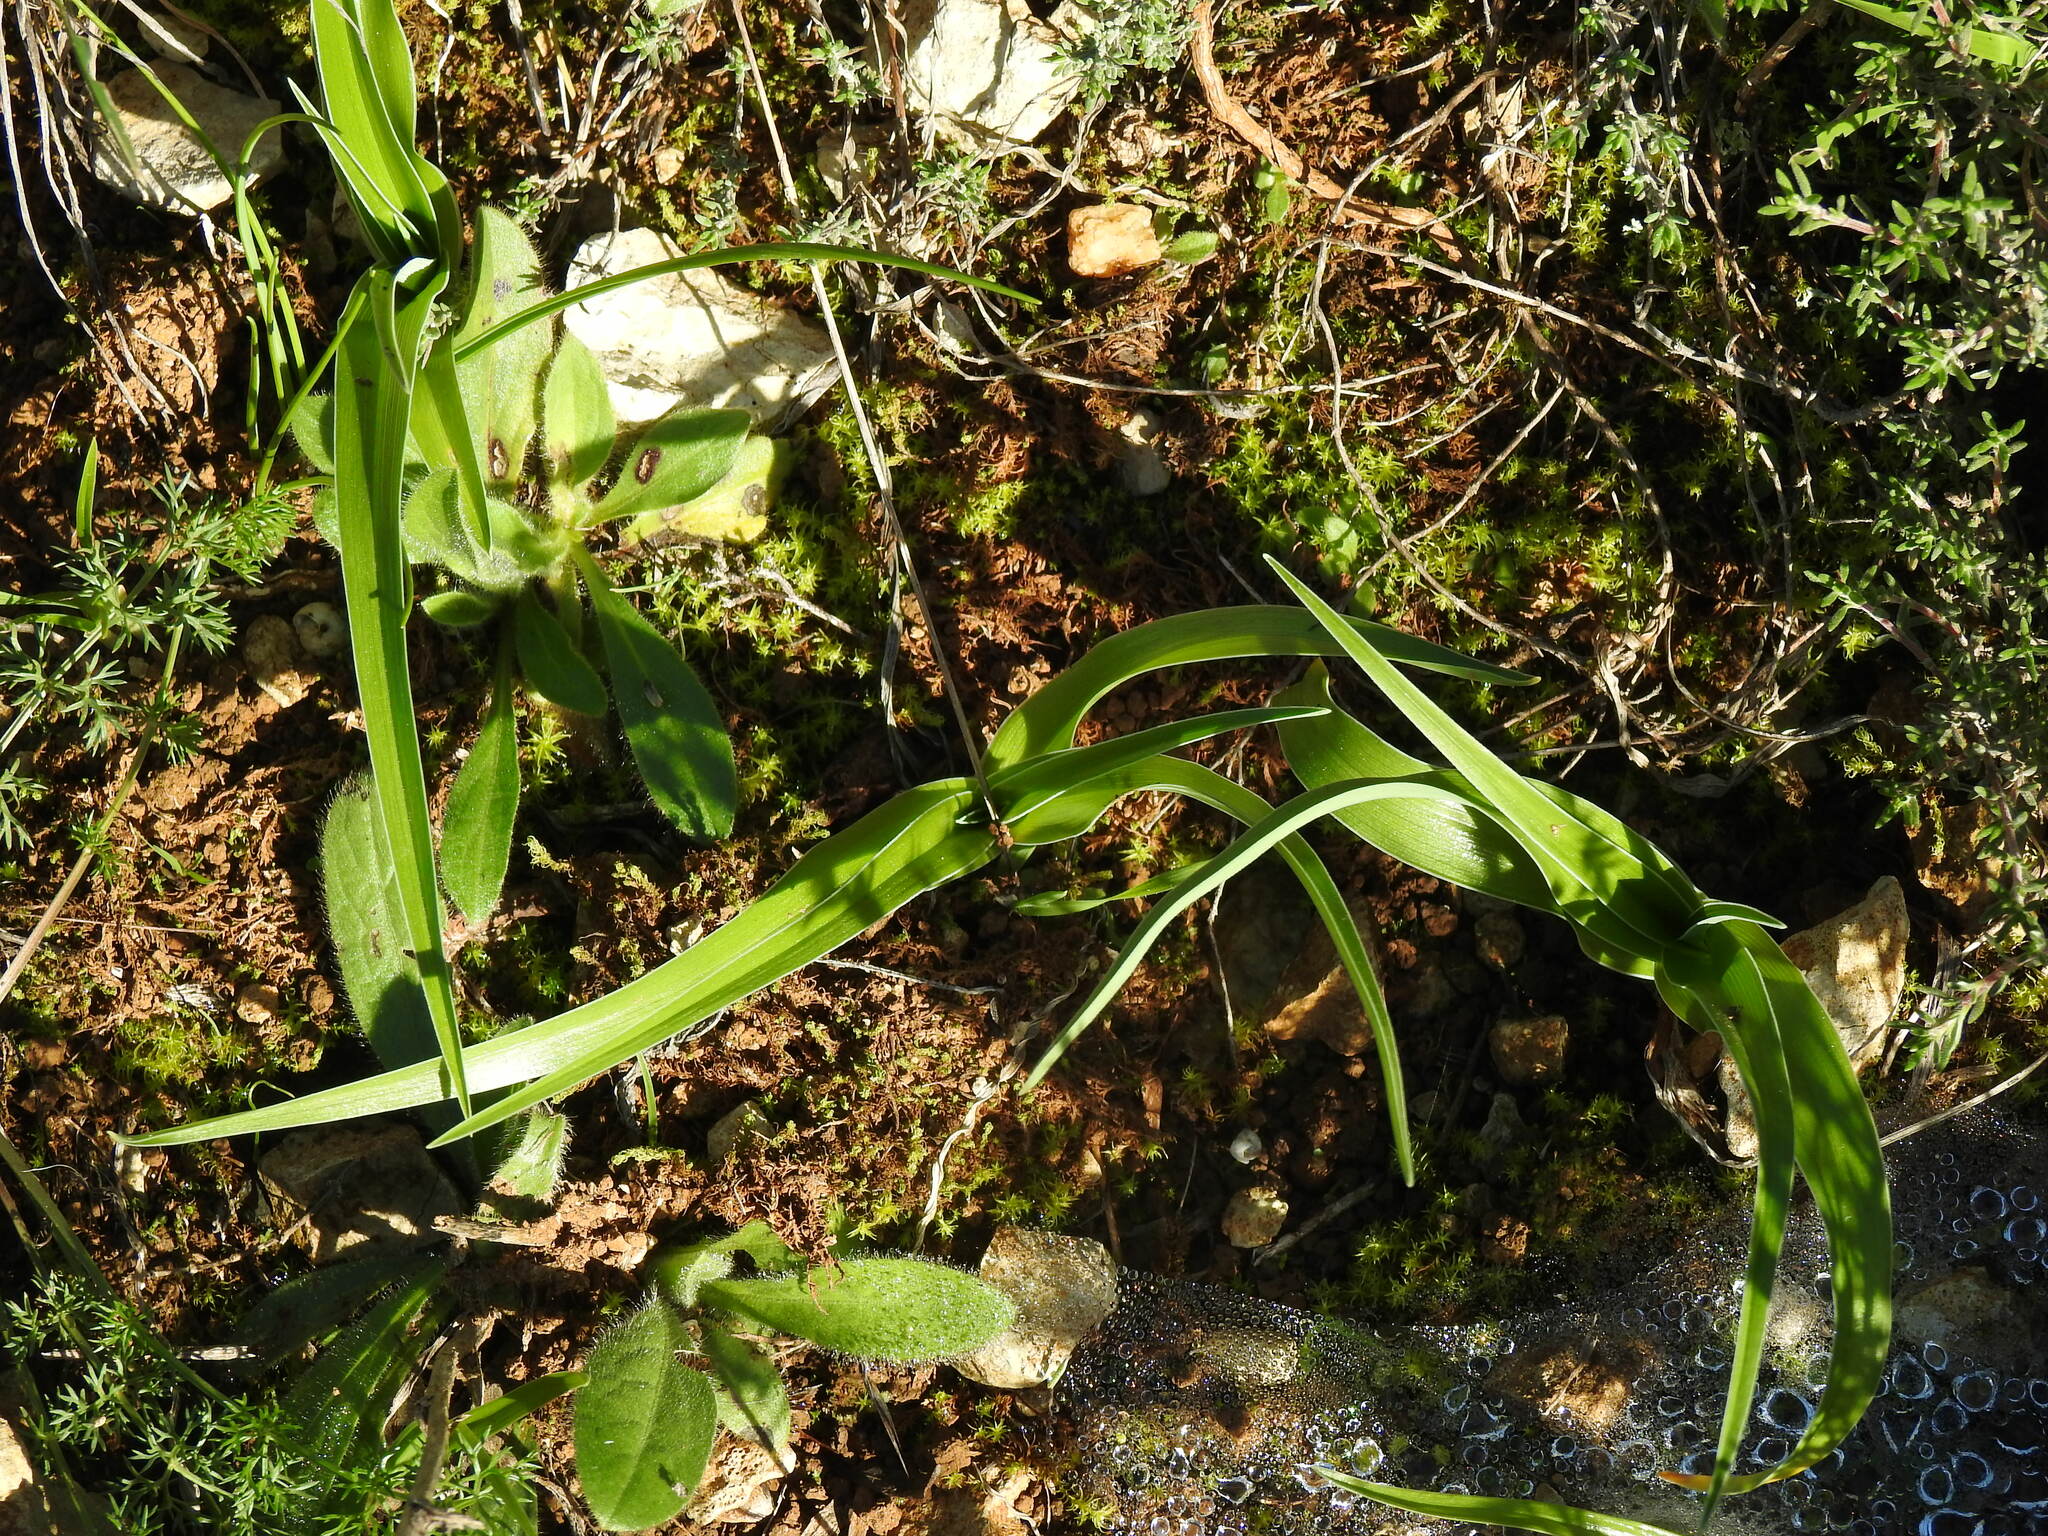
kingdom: Plantae
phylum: Tracheophyta
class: Liliopsida
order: Asparagales
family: Iridaceae
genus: Iris
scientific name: Iris planifolia
